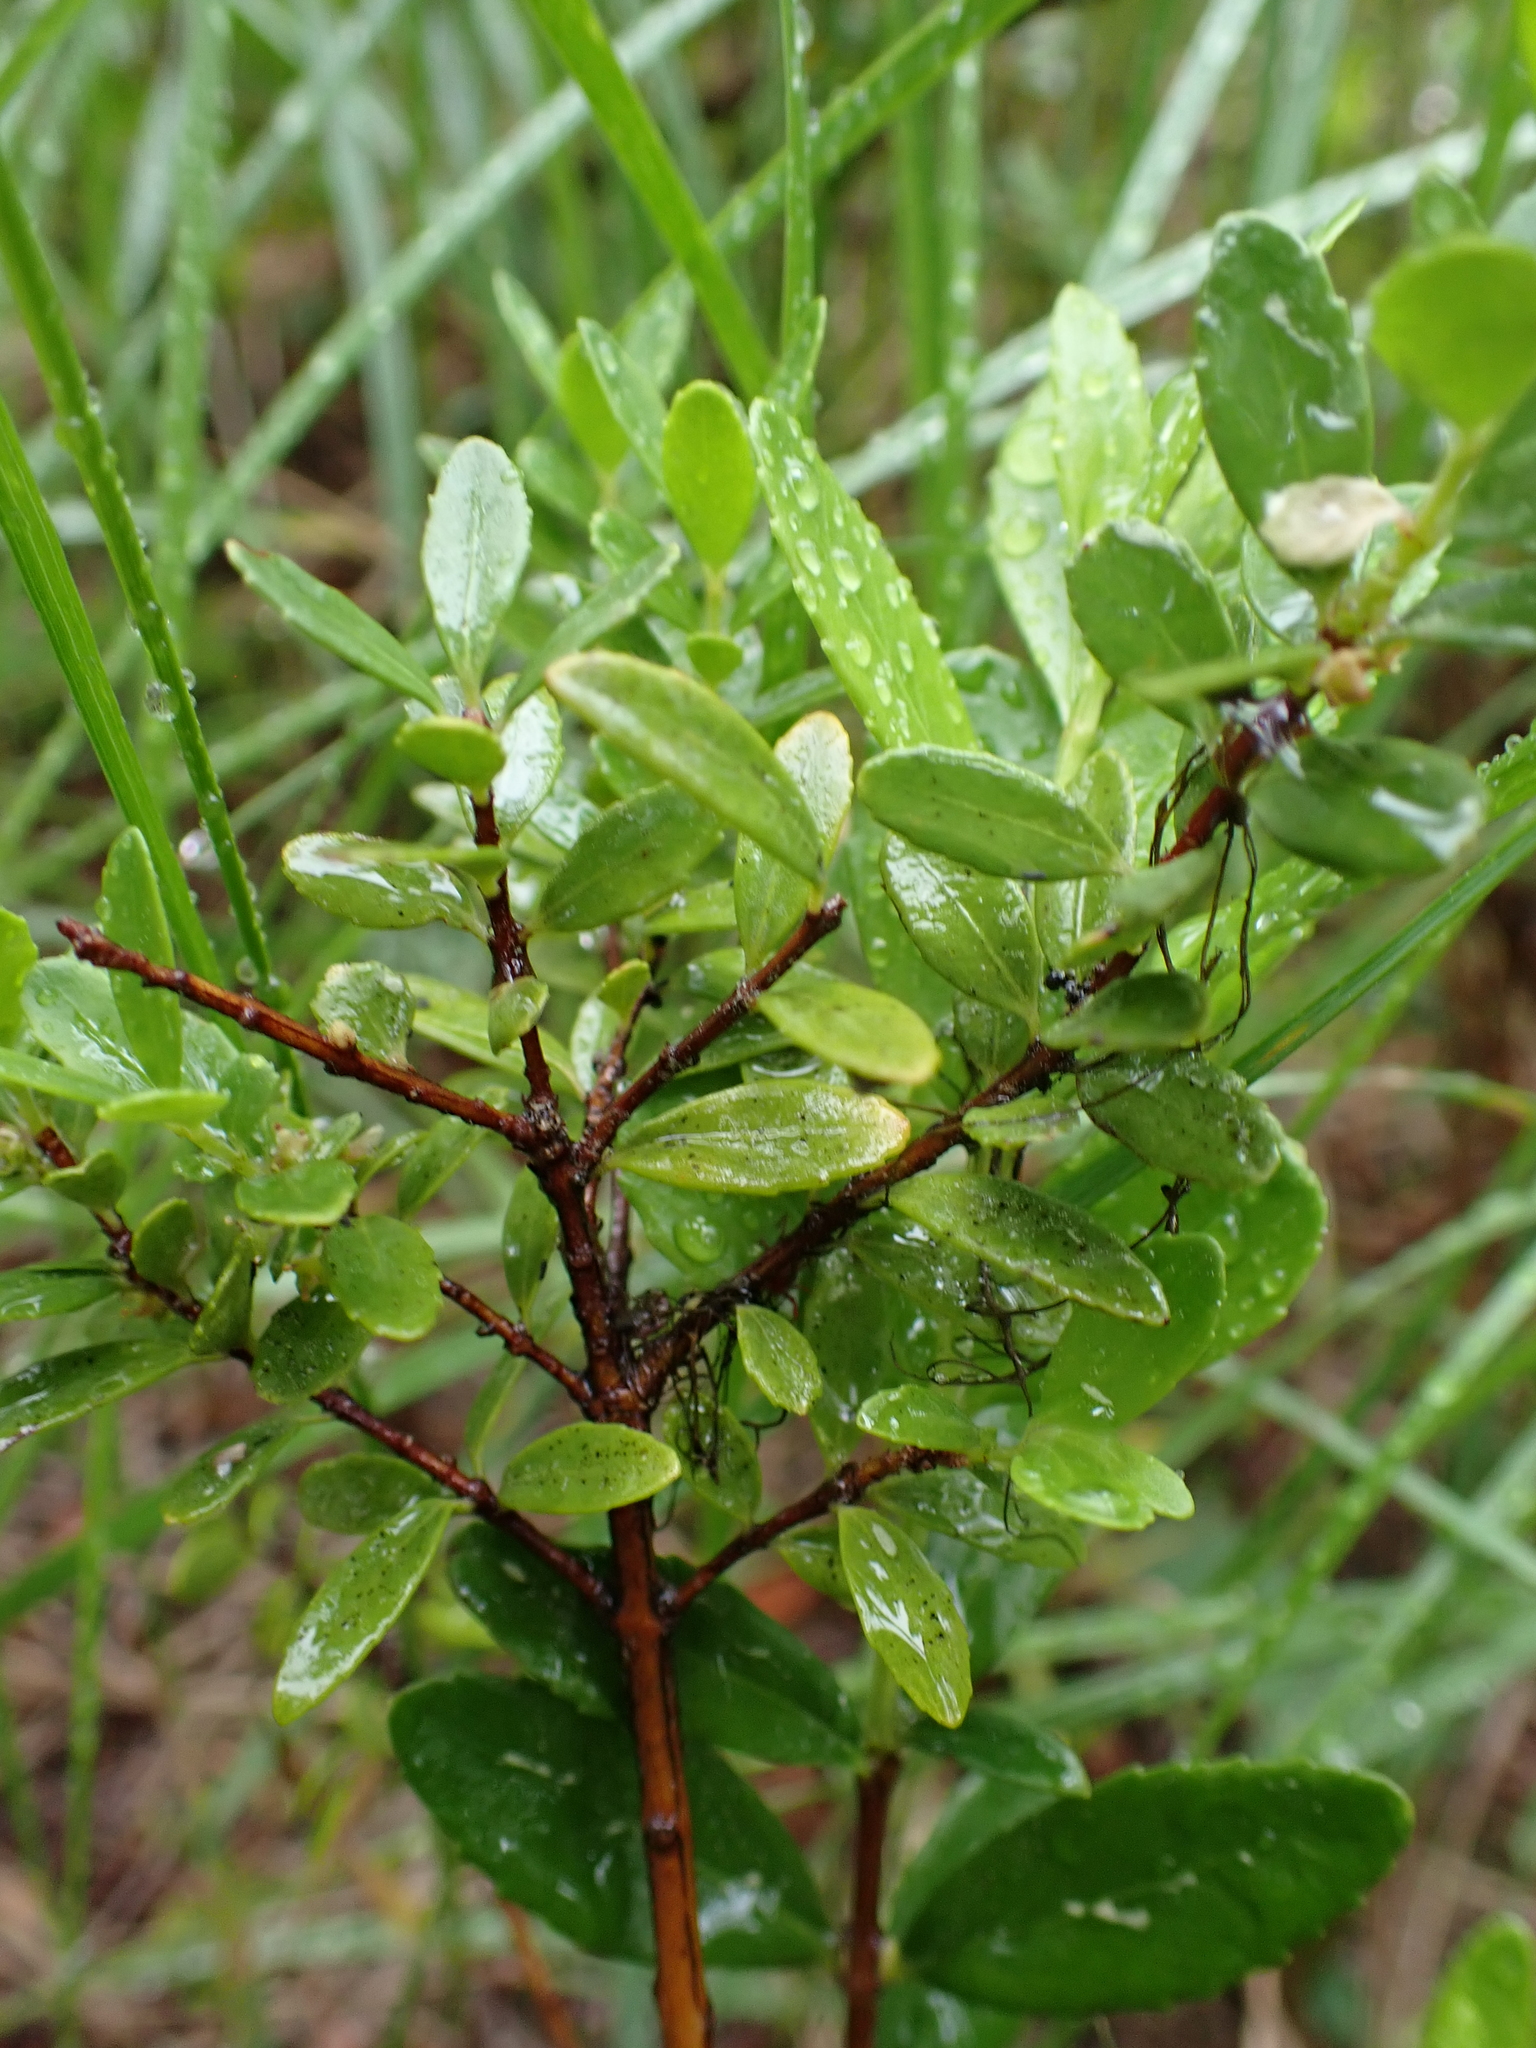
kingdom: Plantae
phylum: Tracheophyta
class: Magnoliopsida
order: Celastrales
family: Celastraceae
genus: Paxistima
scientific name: Paxistima myrsinites
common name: Mountain-lover
